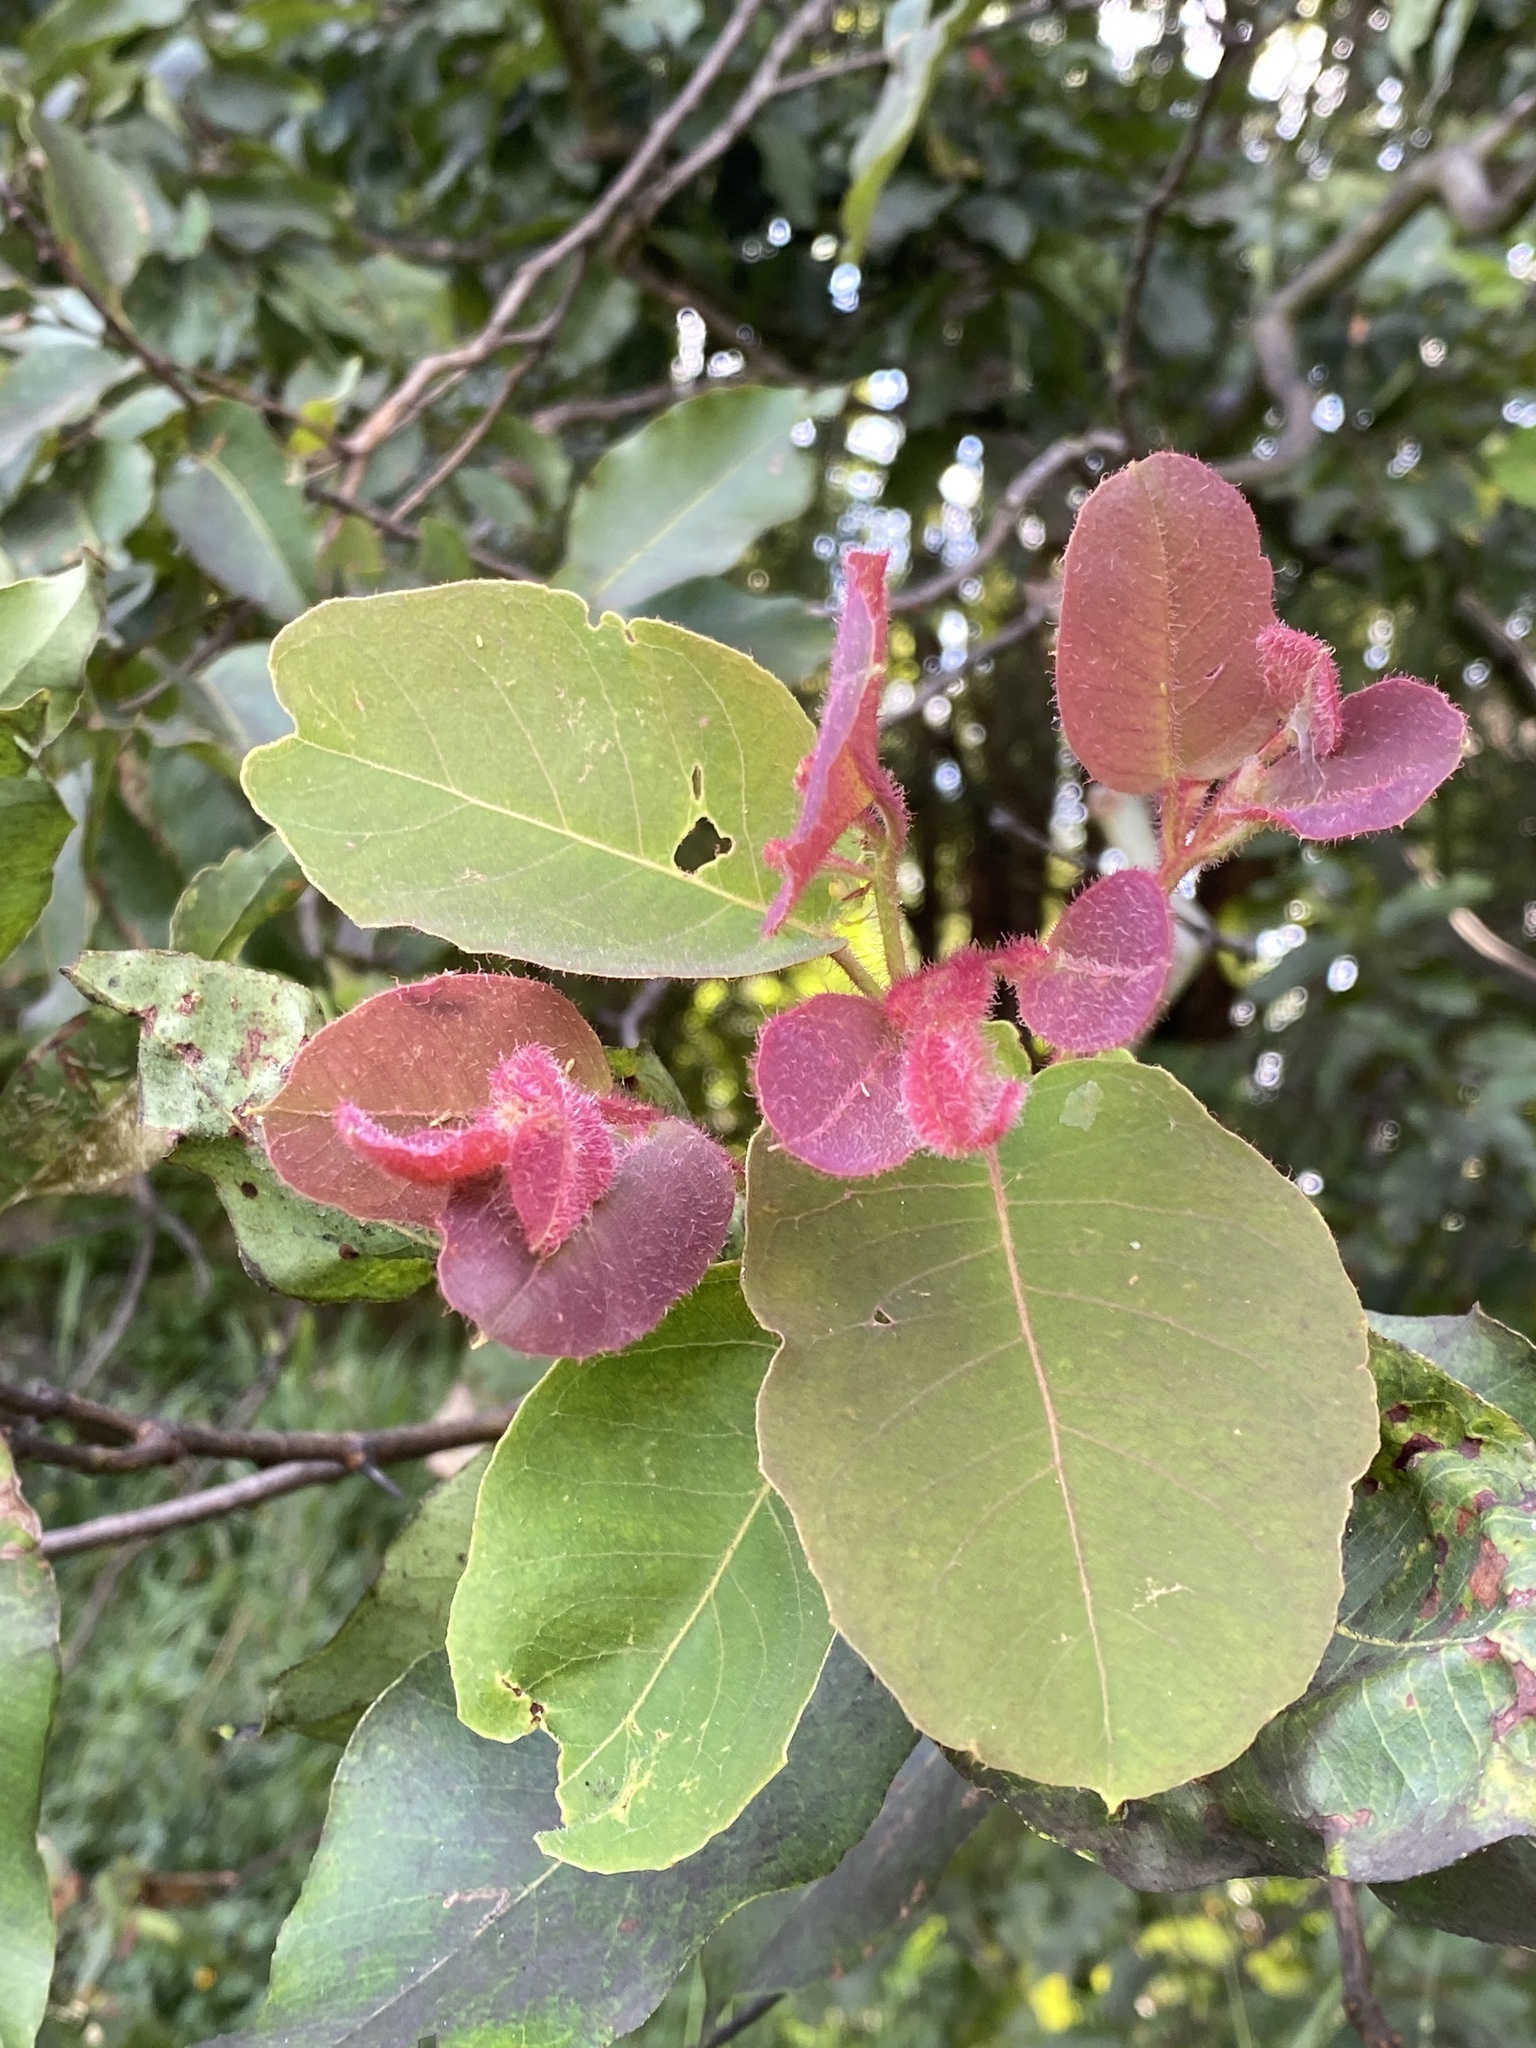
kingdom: Plantae
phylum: Tracheophyta
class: Magnoliopsida
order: Myrtales
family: Myrtaceae
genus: Corymbia
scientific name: Corymbia torelliana
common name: Cadaghi
